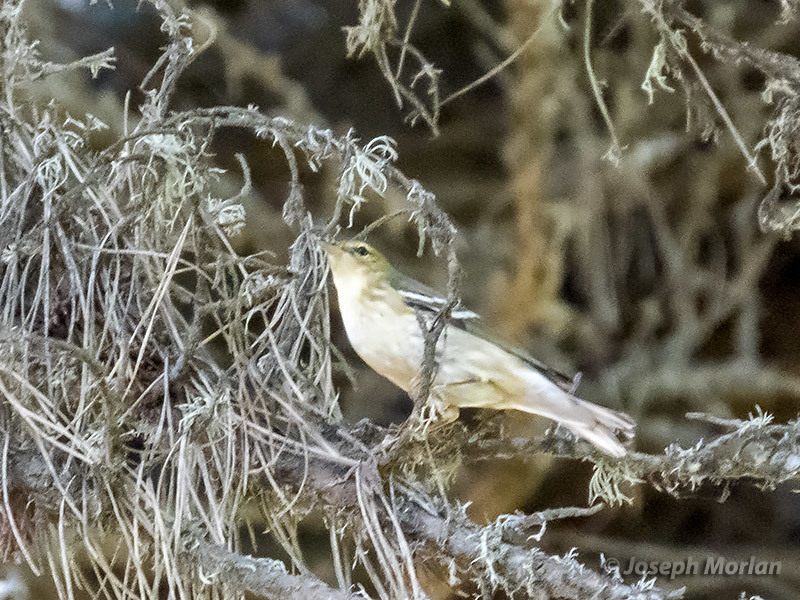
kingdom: Animalia
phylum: Chordata
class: Aves
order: Passeriformes
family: Parulidae
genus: Setophaga
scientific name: Setophaga striata
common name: Blackpoll warbler
